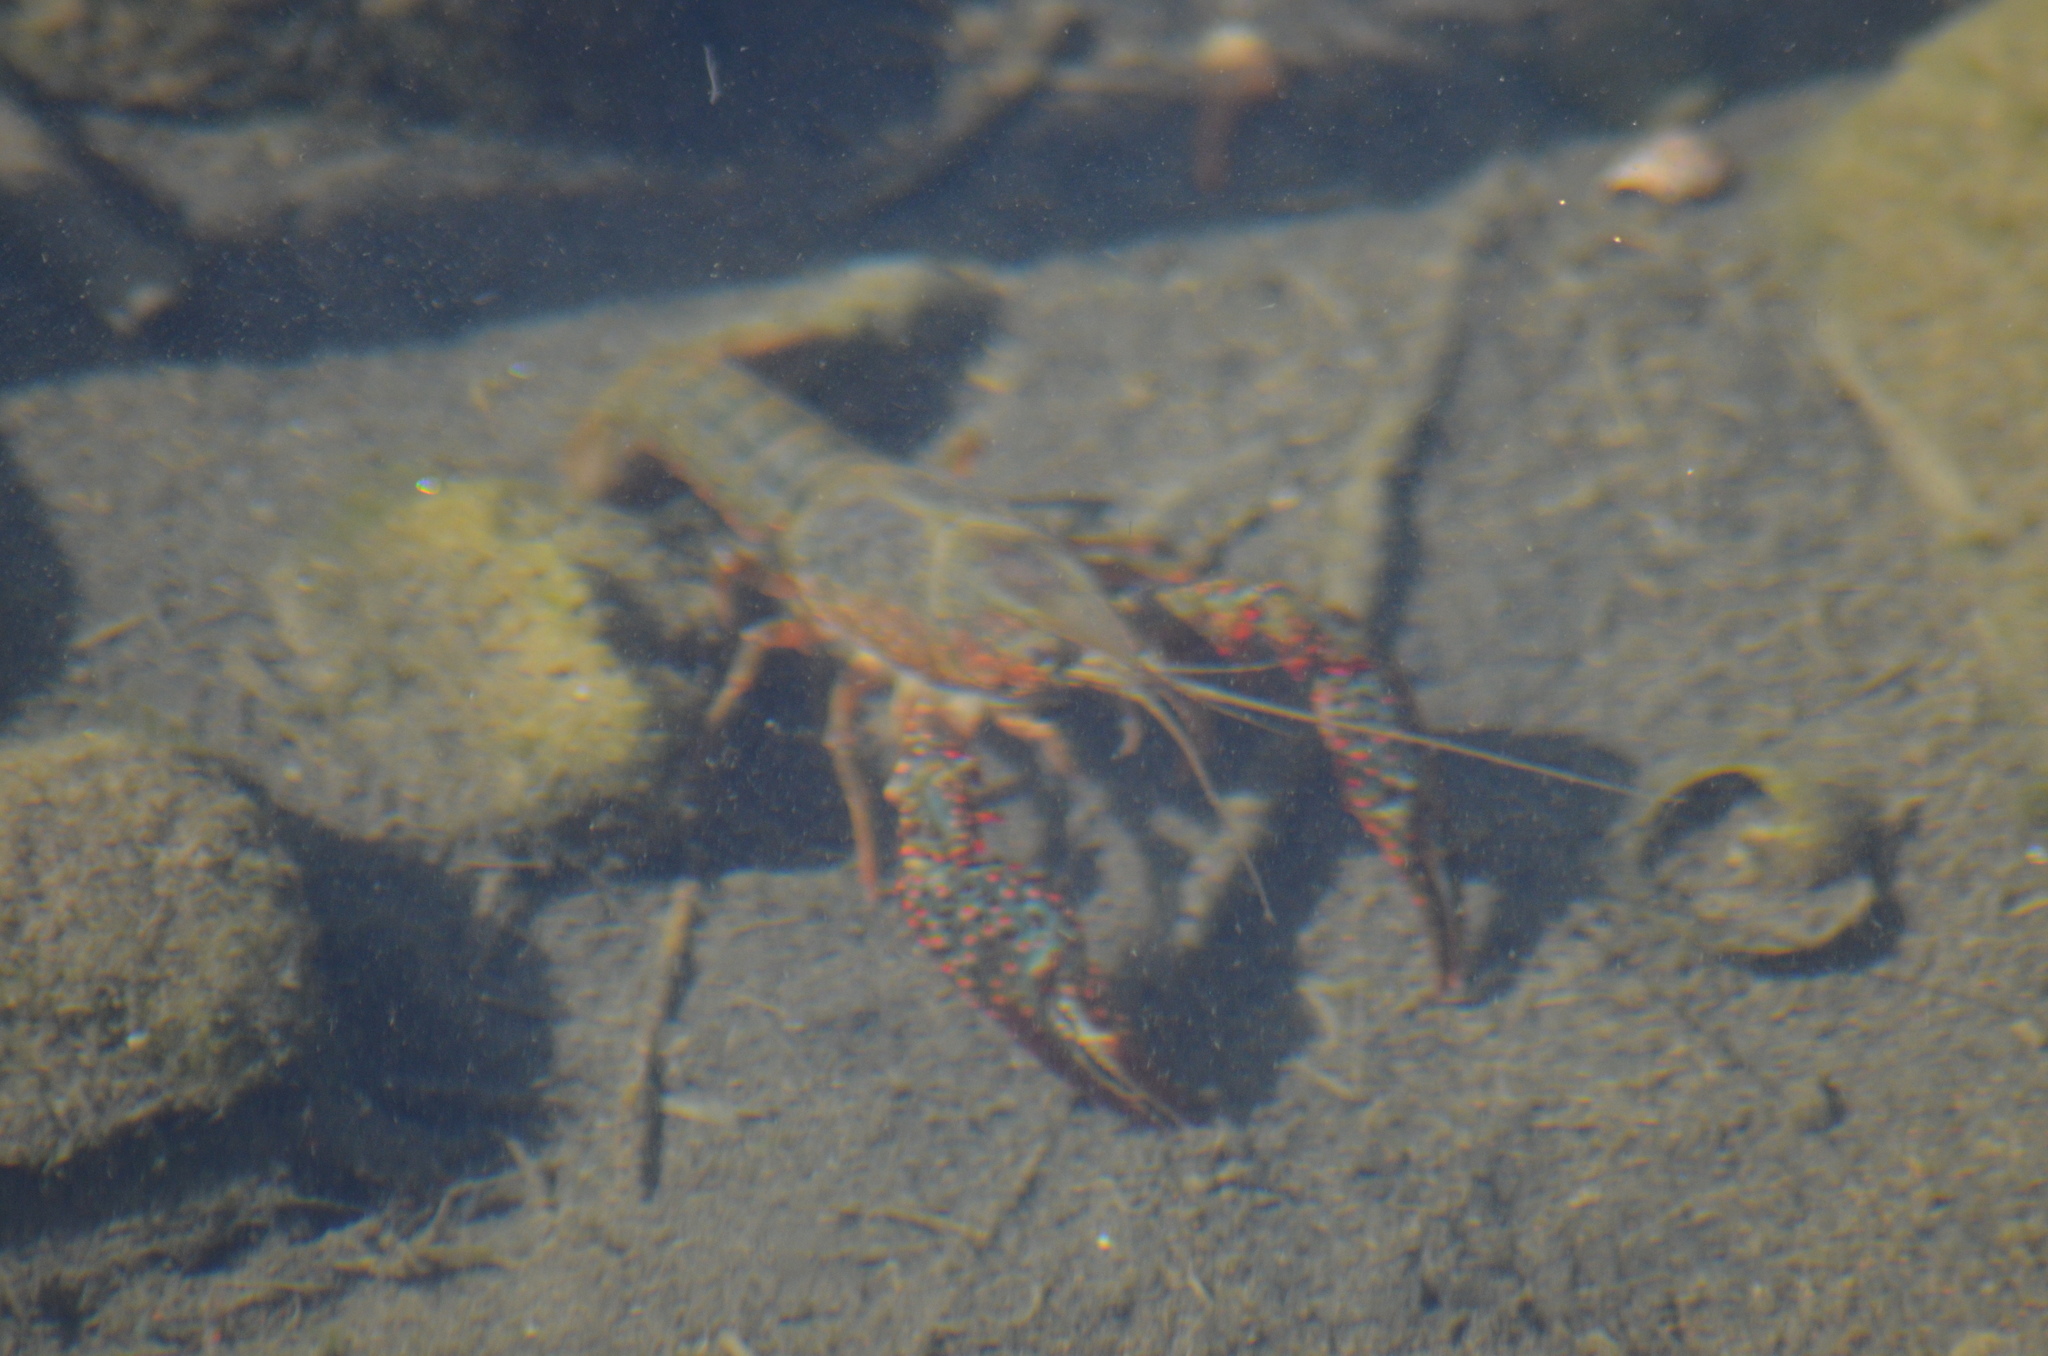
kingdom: Animalia
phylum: Arthropoda
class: Malacostraca
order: Decapoda
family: Cambaridae
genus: Procambarus
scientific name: Procambarus clarkii
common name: Red swamp crayfish
